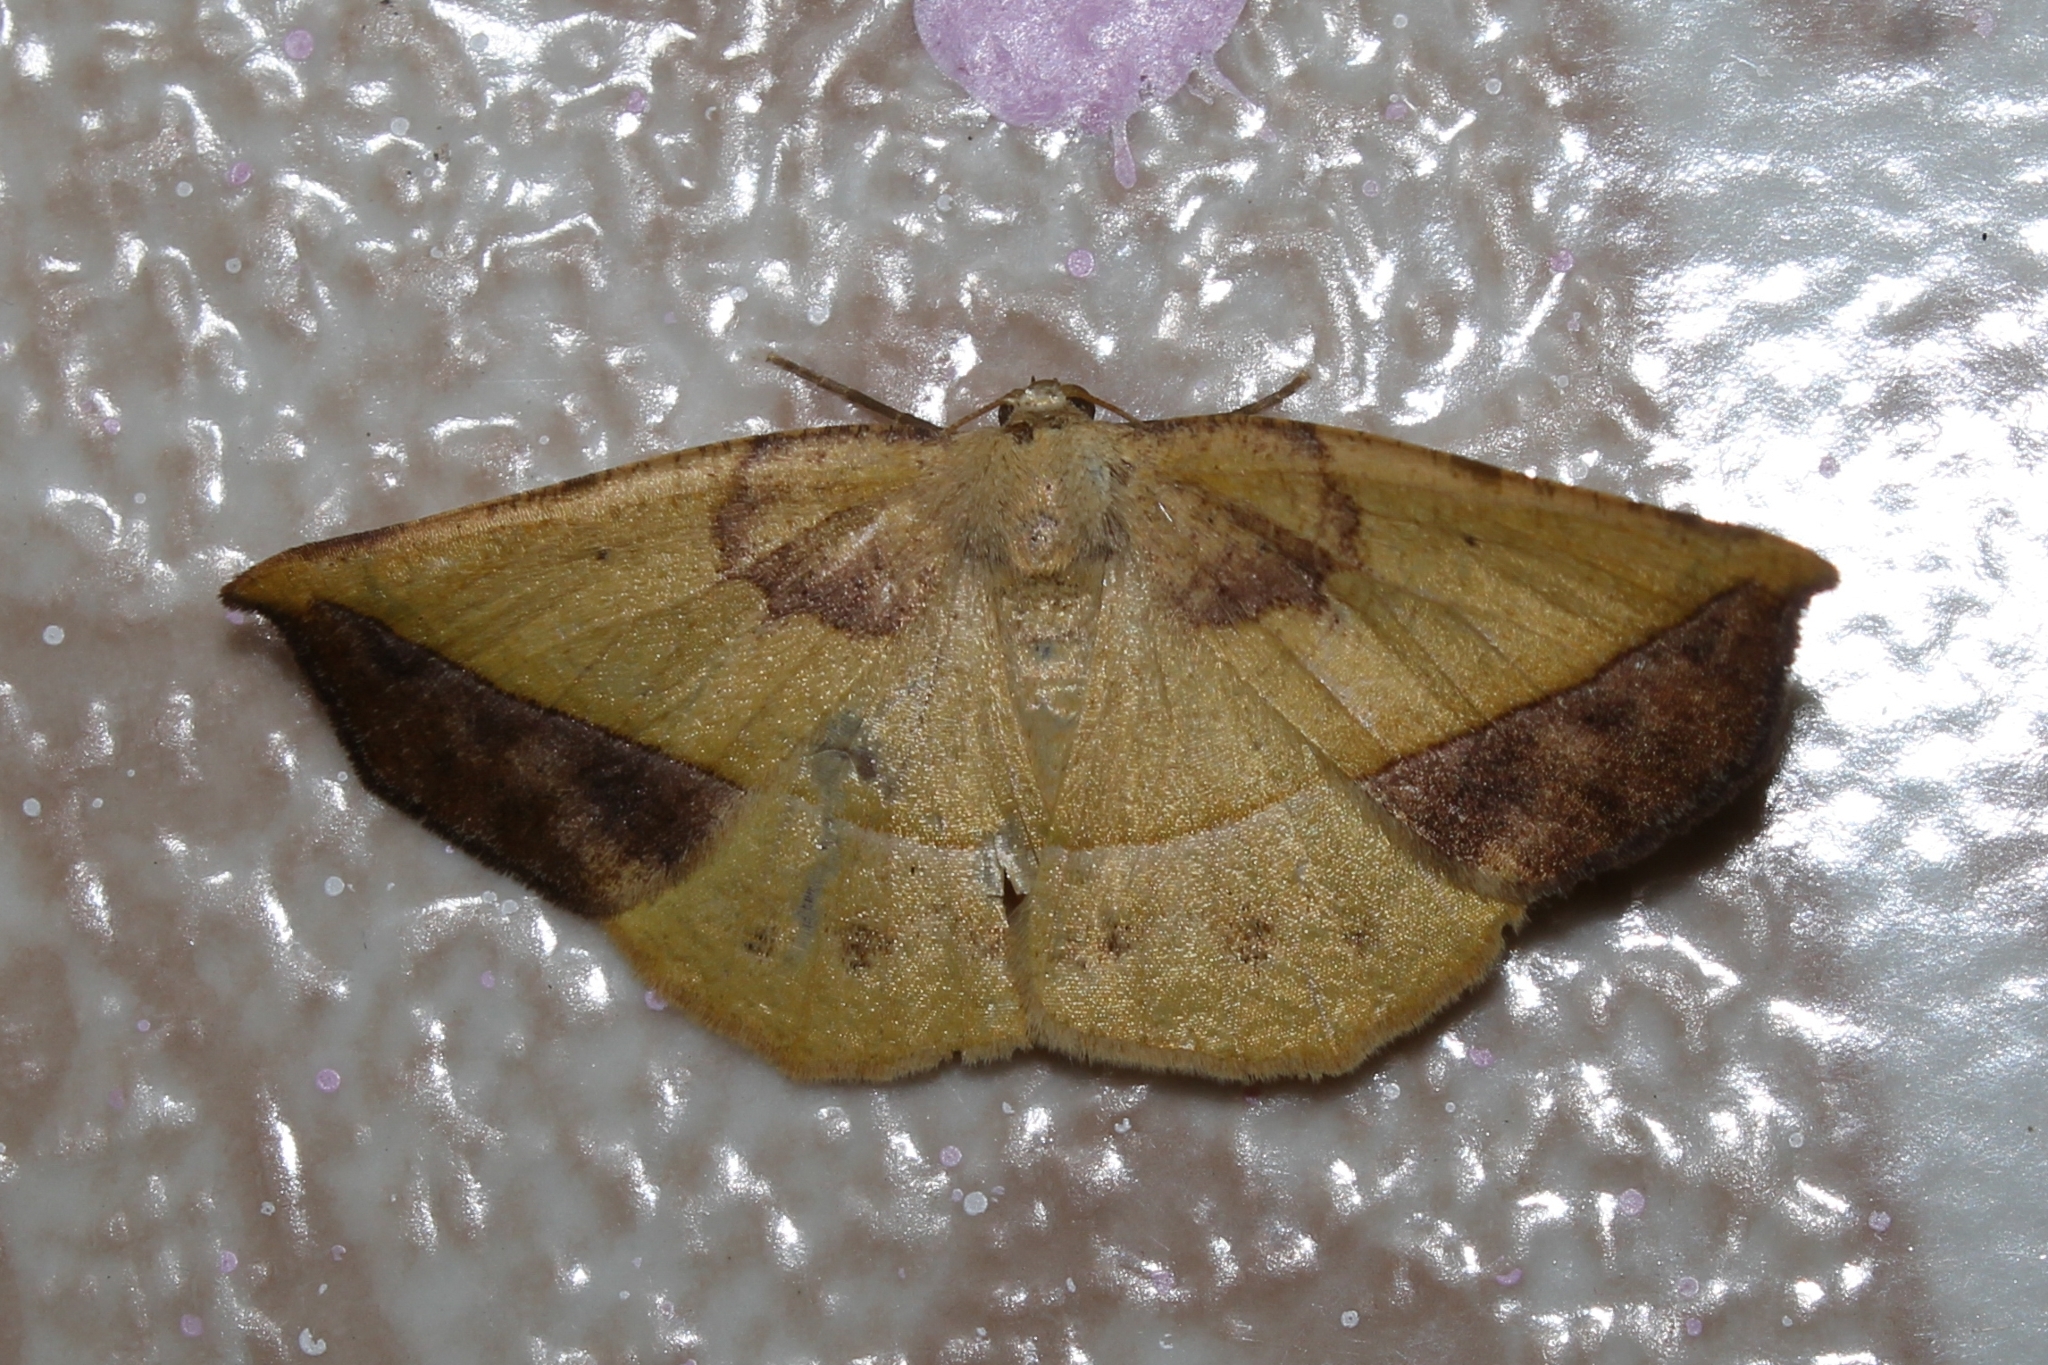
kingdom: Animalia
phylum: Arthropoda
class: Insecta
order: Lepidoptera
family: Geometridae
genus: Eusarca
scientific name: Eusarca asteria
